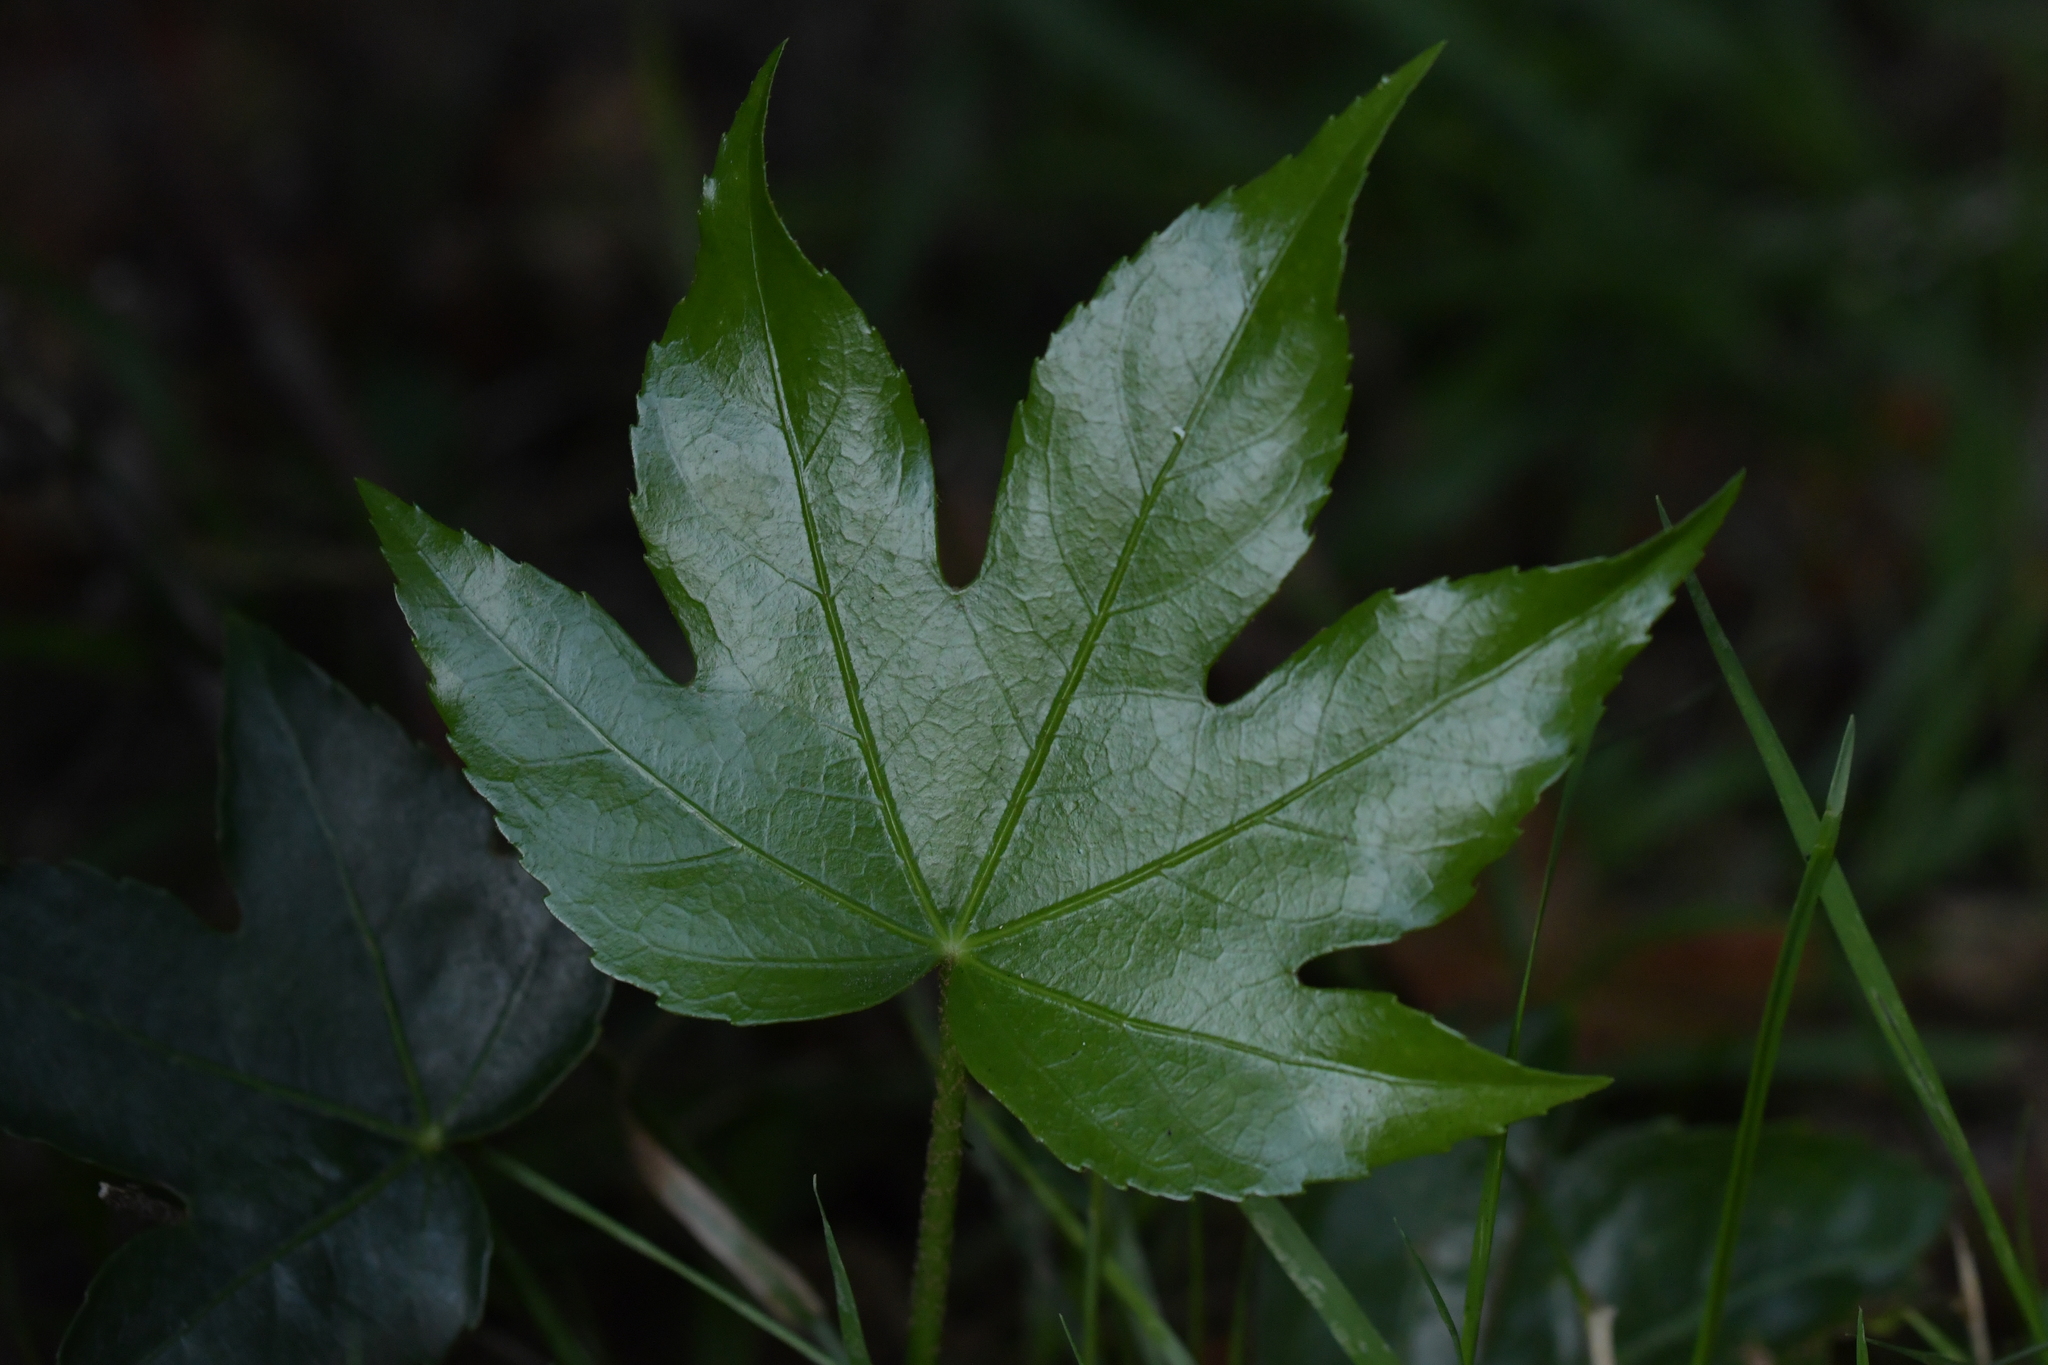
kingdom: Plantae
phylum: Tracheophyta
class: Magnoliopsida
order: Apiales
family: Araliaceae
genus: Fatsia
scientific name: Fatsia japonica
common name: Fatsia
